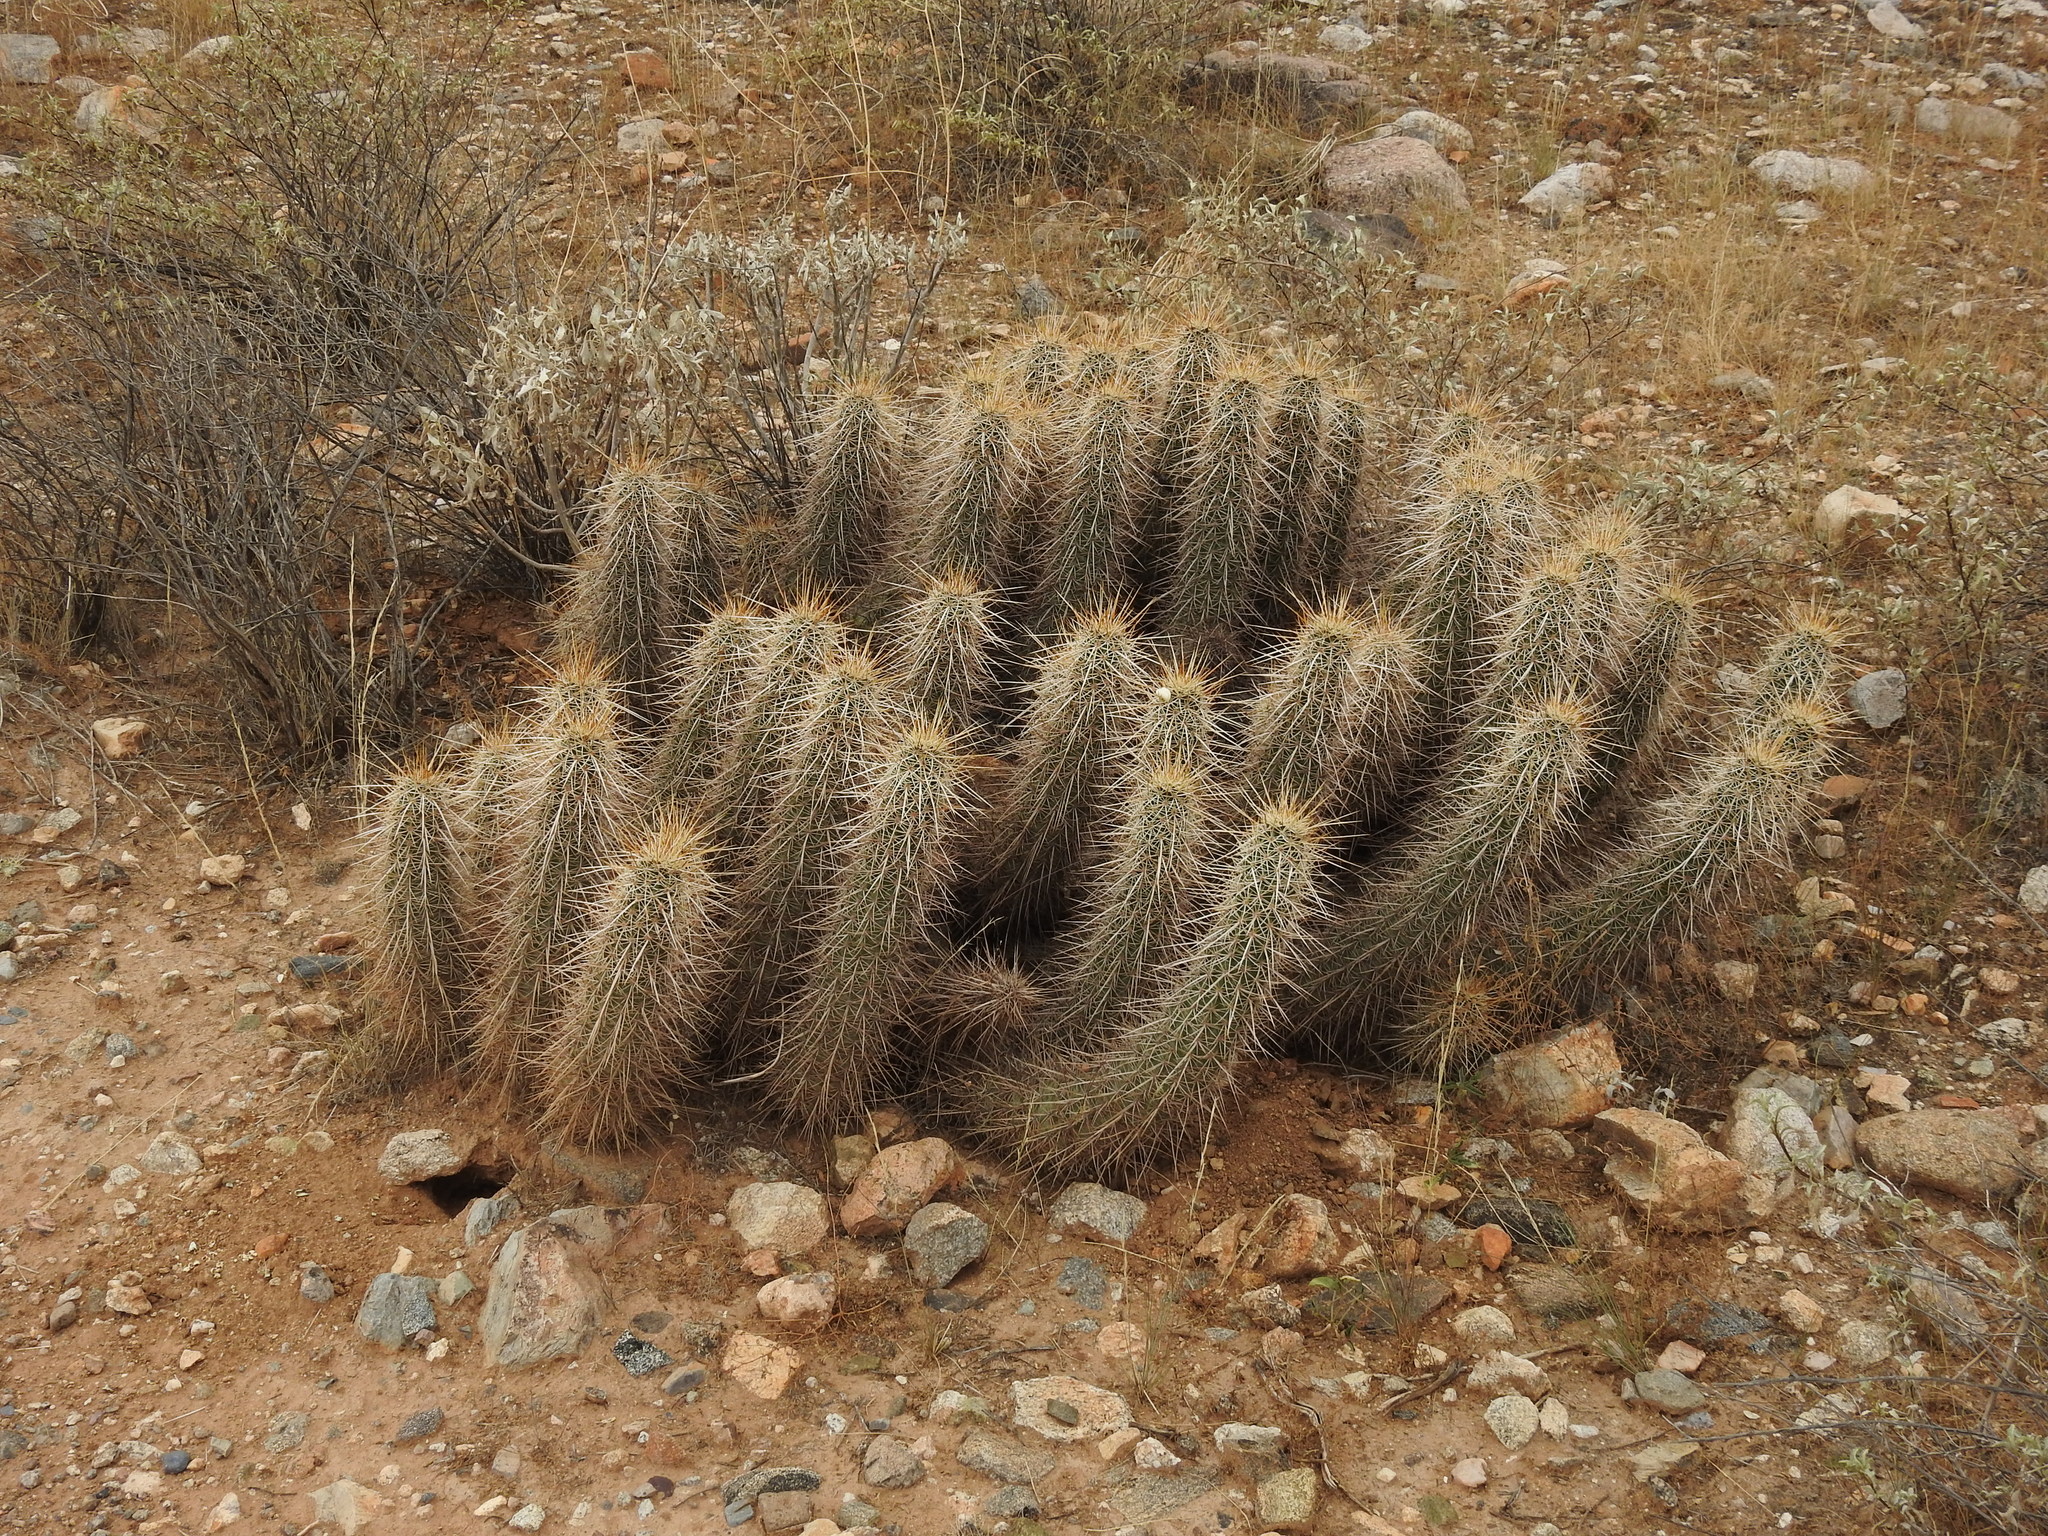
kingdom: Plantae
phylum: Tracheophyta
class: Magnoliopsida
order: Caryophyllales
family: Cactaceae
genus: Echinocereus
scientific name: Echinocereus engelmannii
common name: Engelmann's hedgehog cactus
